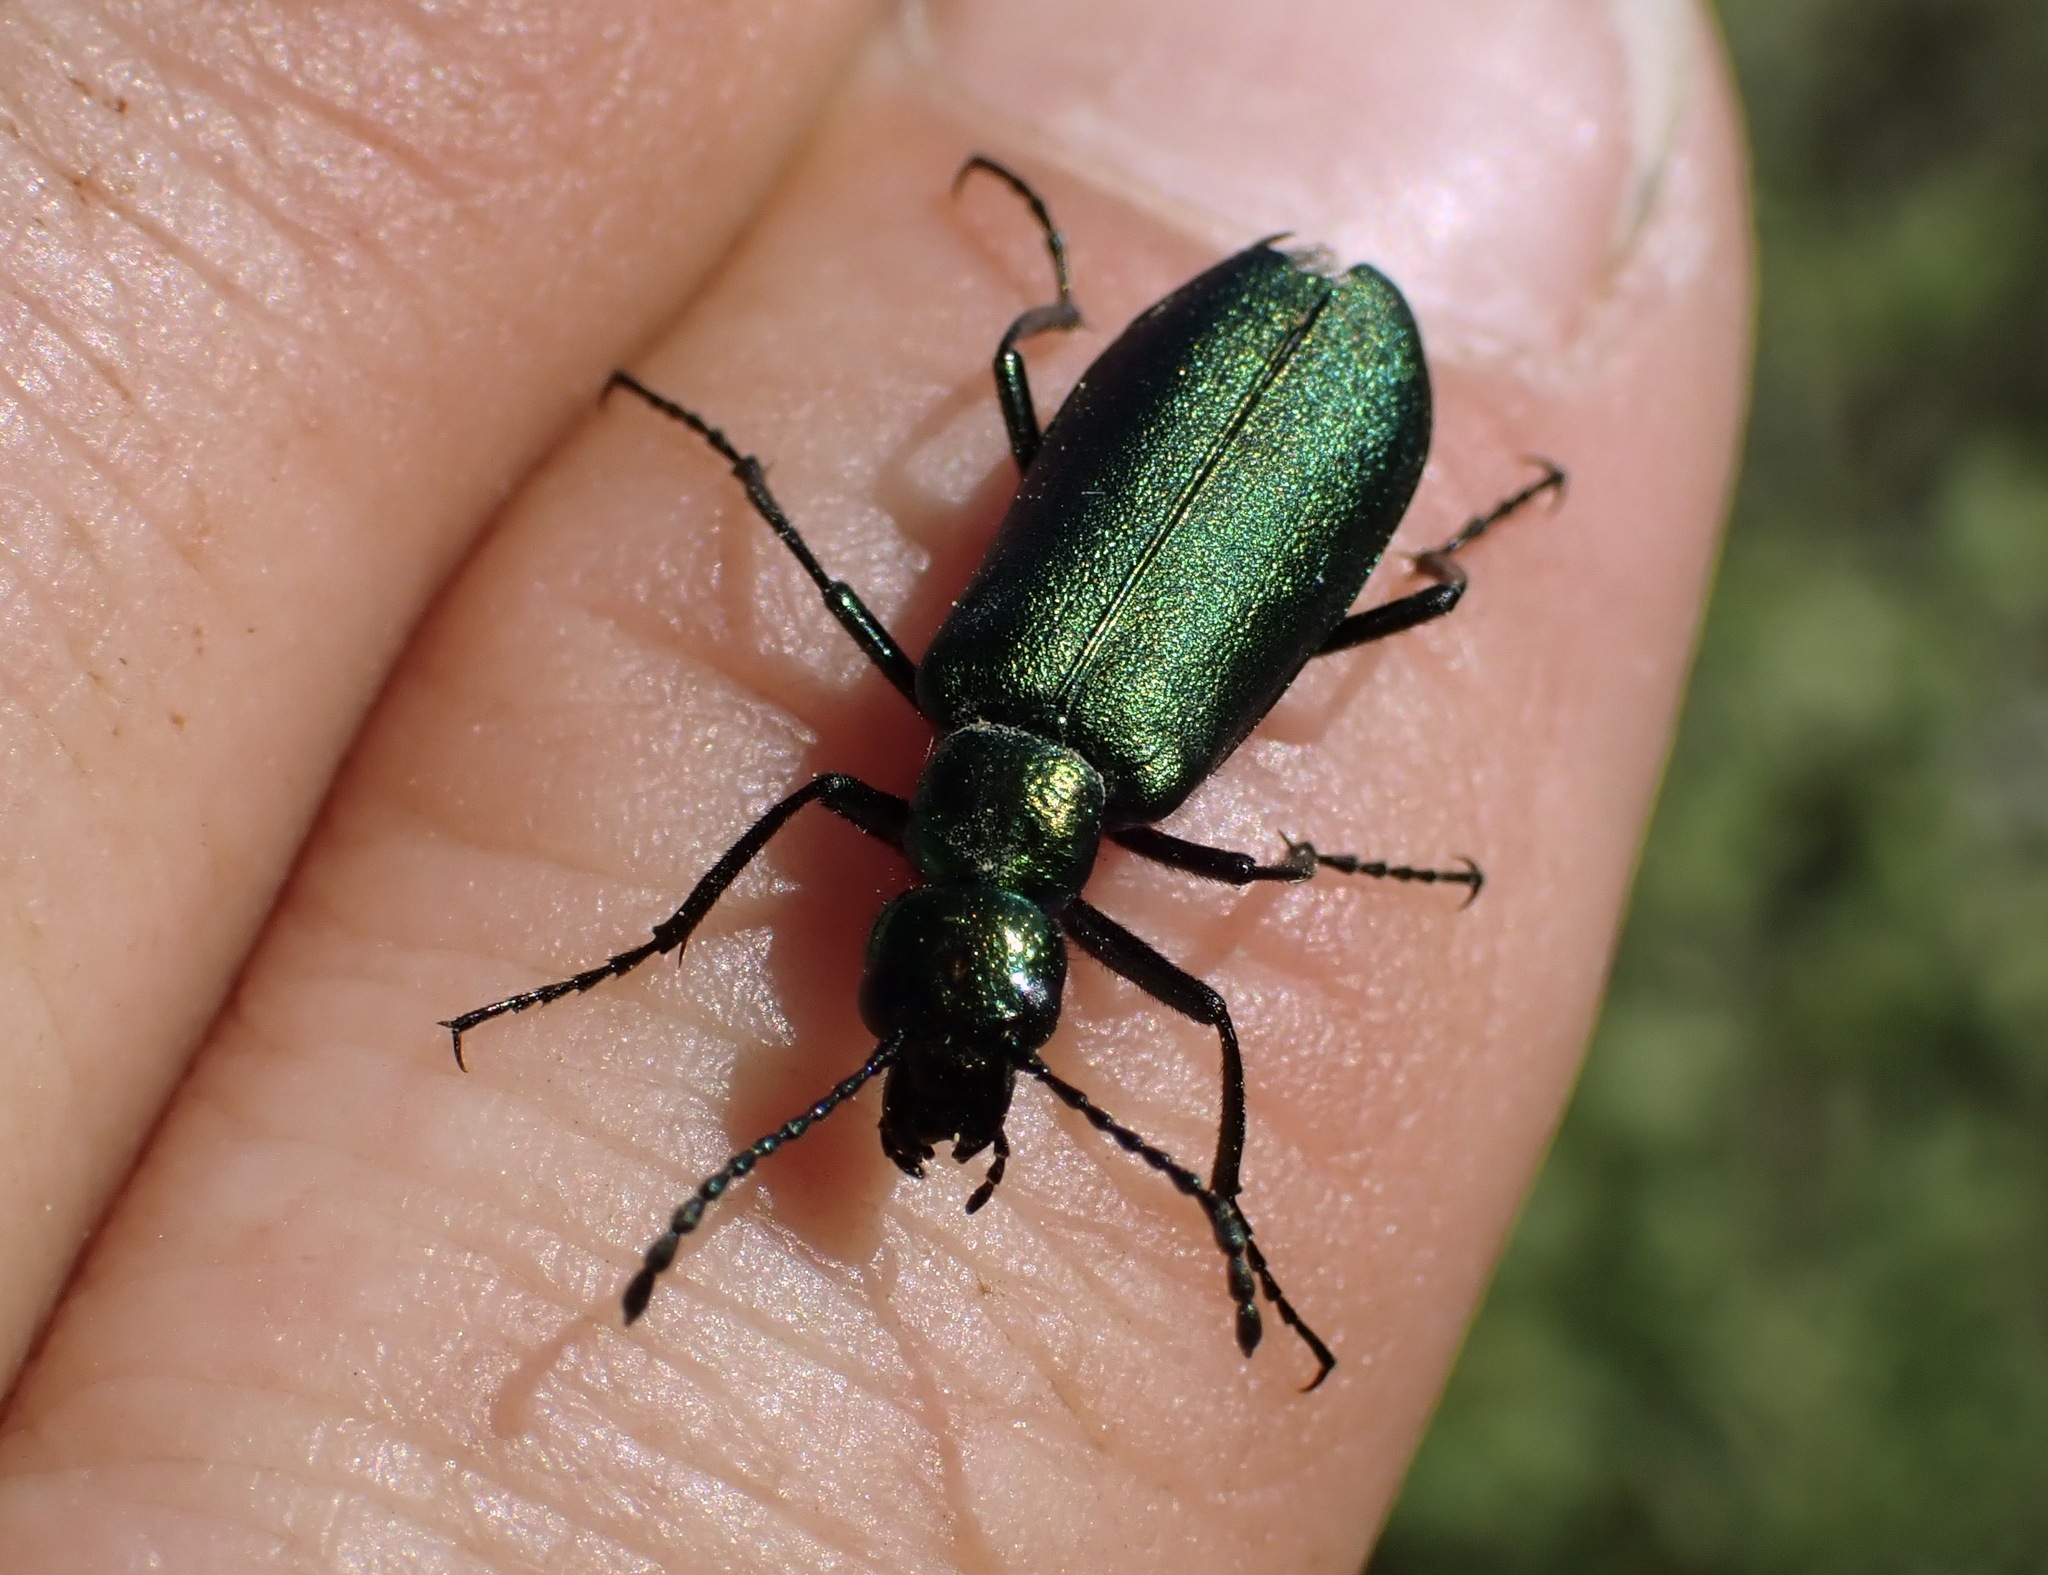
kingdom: Animalia
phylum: Arthropoda
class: Insecta
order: Coleoptera
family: Meloidae
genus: Lytta
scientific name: Lytta stygica
